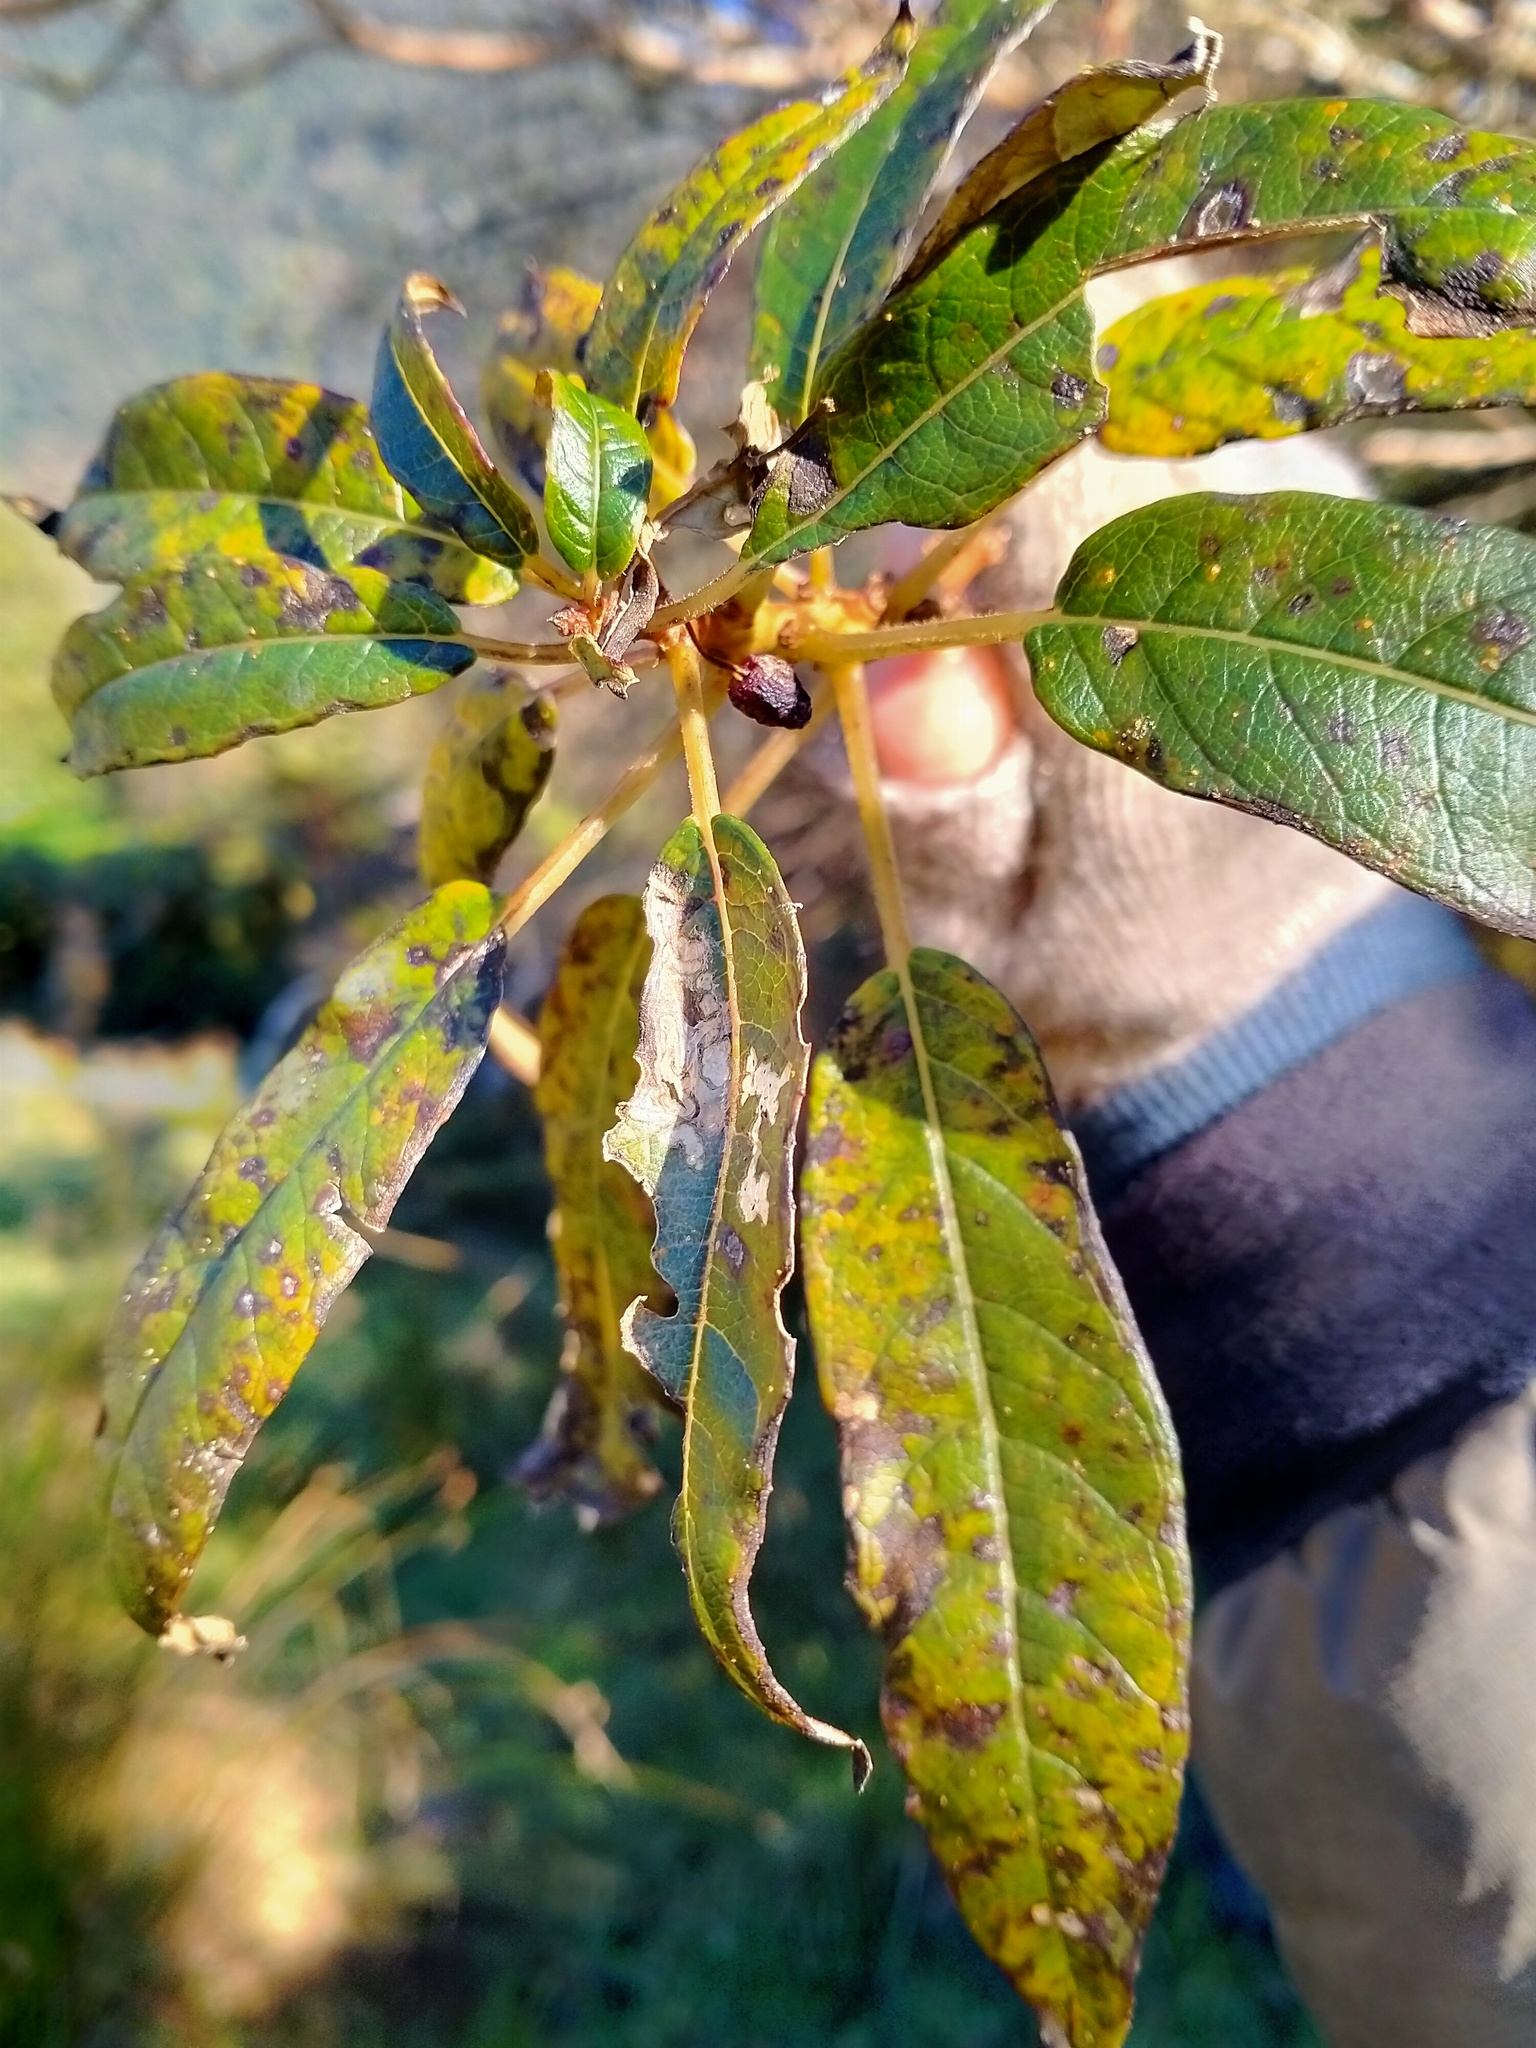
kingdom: Plantae
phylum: Tracheophyta
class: Magnoliopsida
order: Myrtales
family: Onagraceae
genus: Fuchsia
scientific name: Fuchsia excorticata
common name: Tree fuchsia
